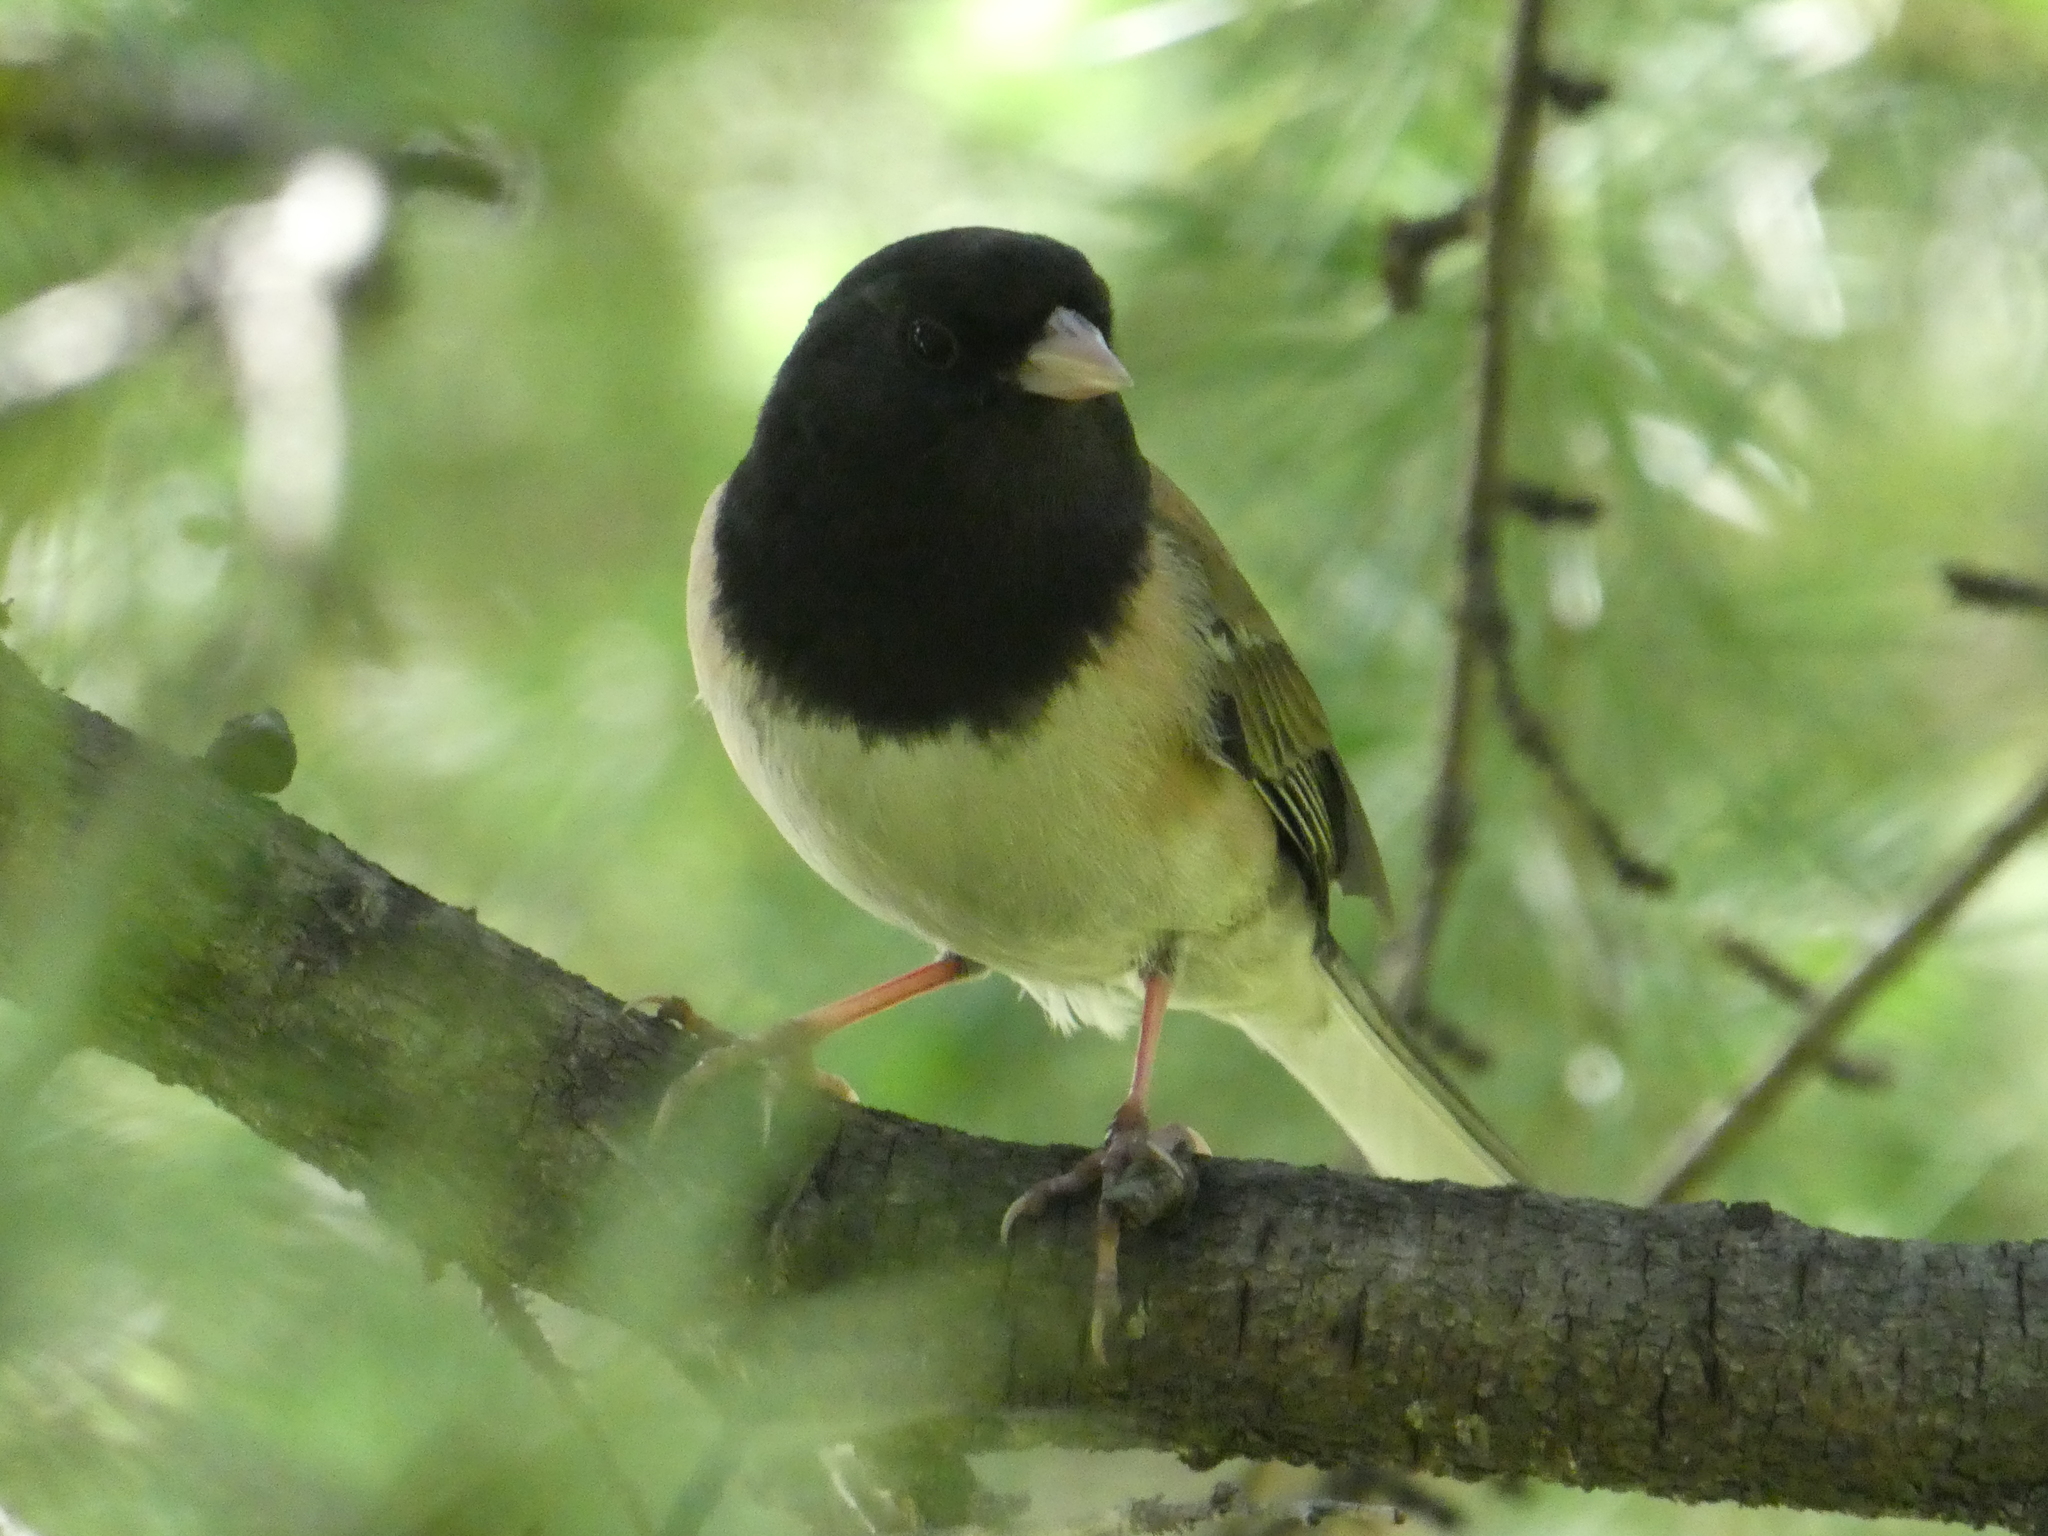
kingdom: Animalia
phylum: Chordata
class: Aves
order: Passeriformes
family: Passerellidae
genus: Junco
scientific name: Junco hyemalis
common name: Dark-eyed junco
